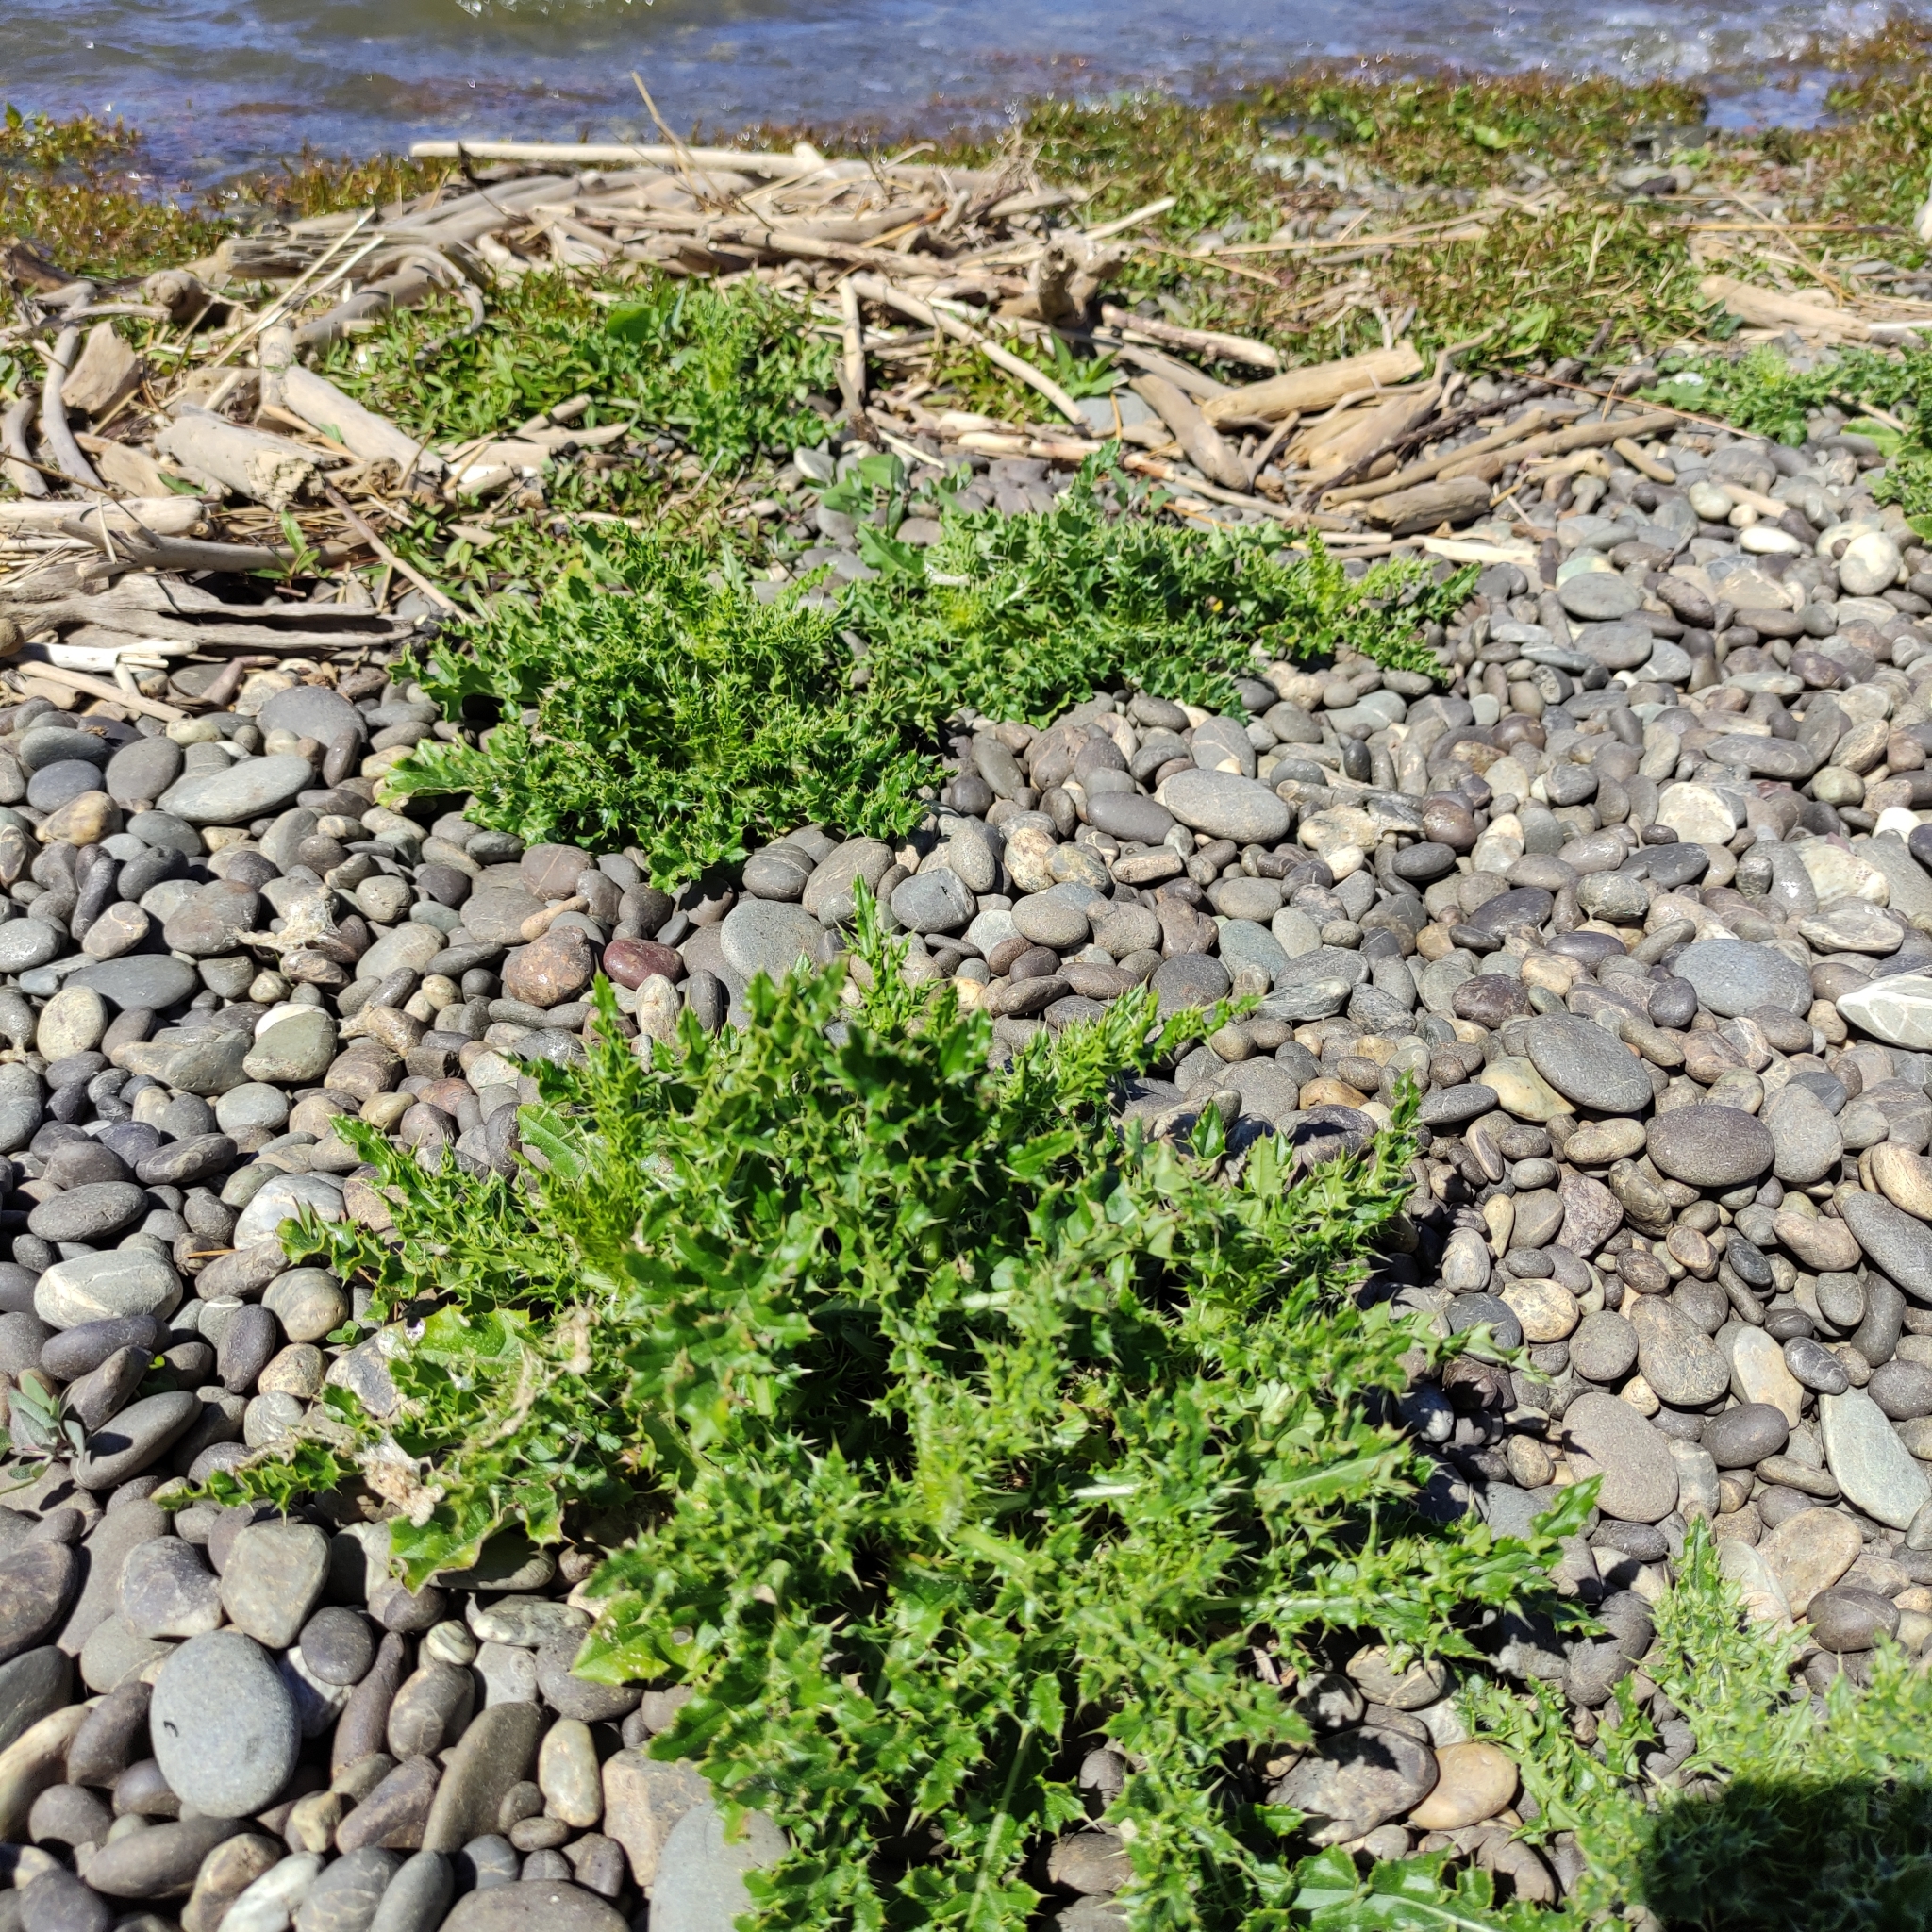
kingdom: Plantae
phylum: Tracheophyta
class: Magnoliopsida
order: Asterales
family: Asteraceae
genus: Cirsium
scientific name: Cirsium arvense
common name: Creeping thistle
